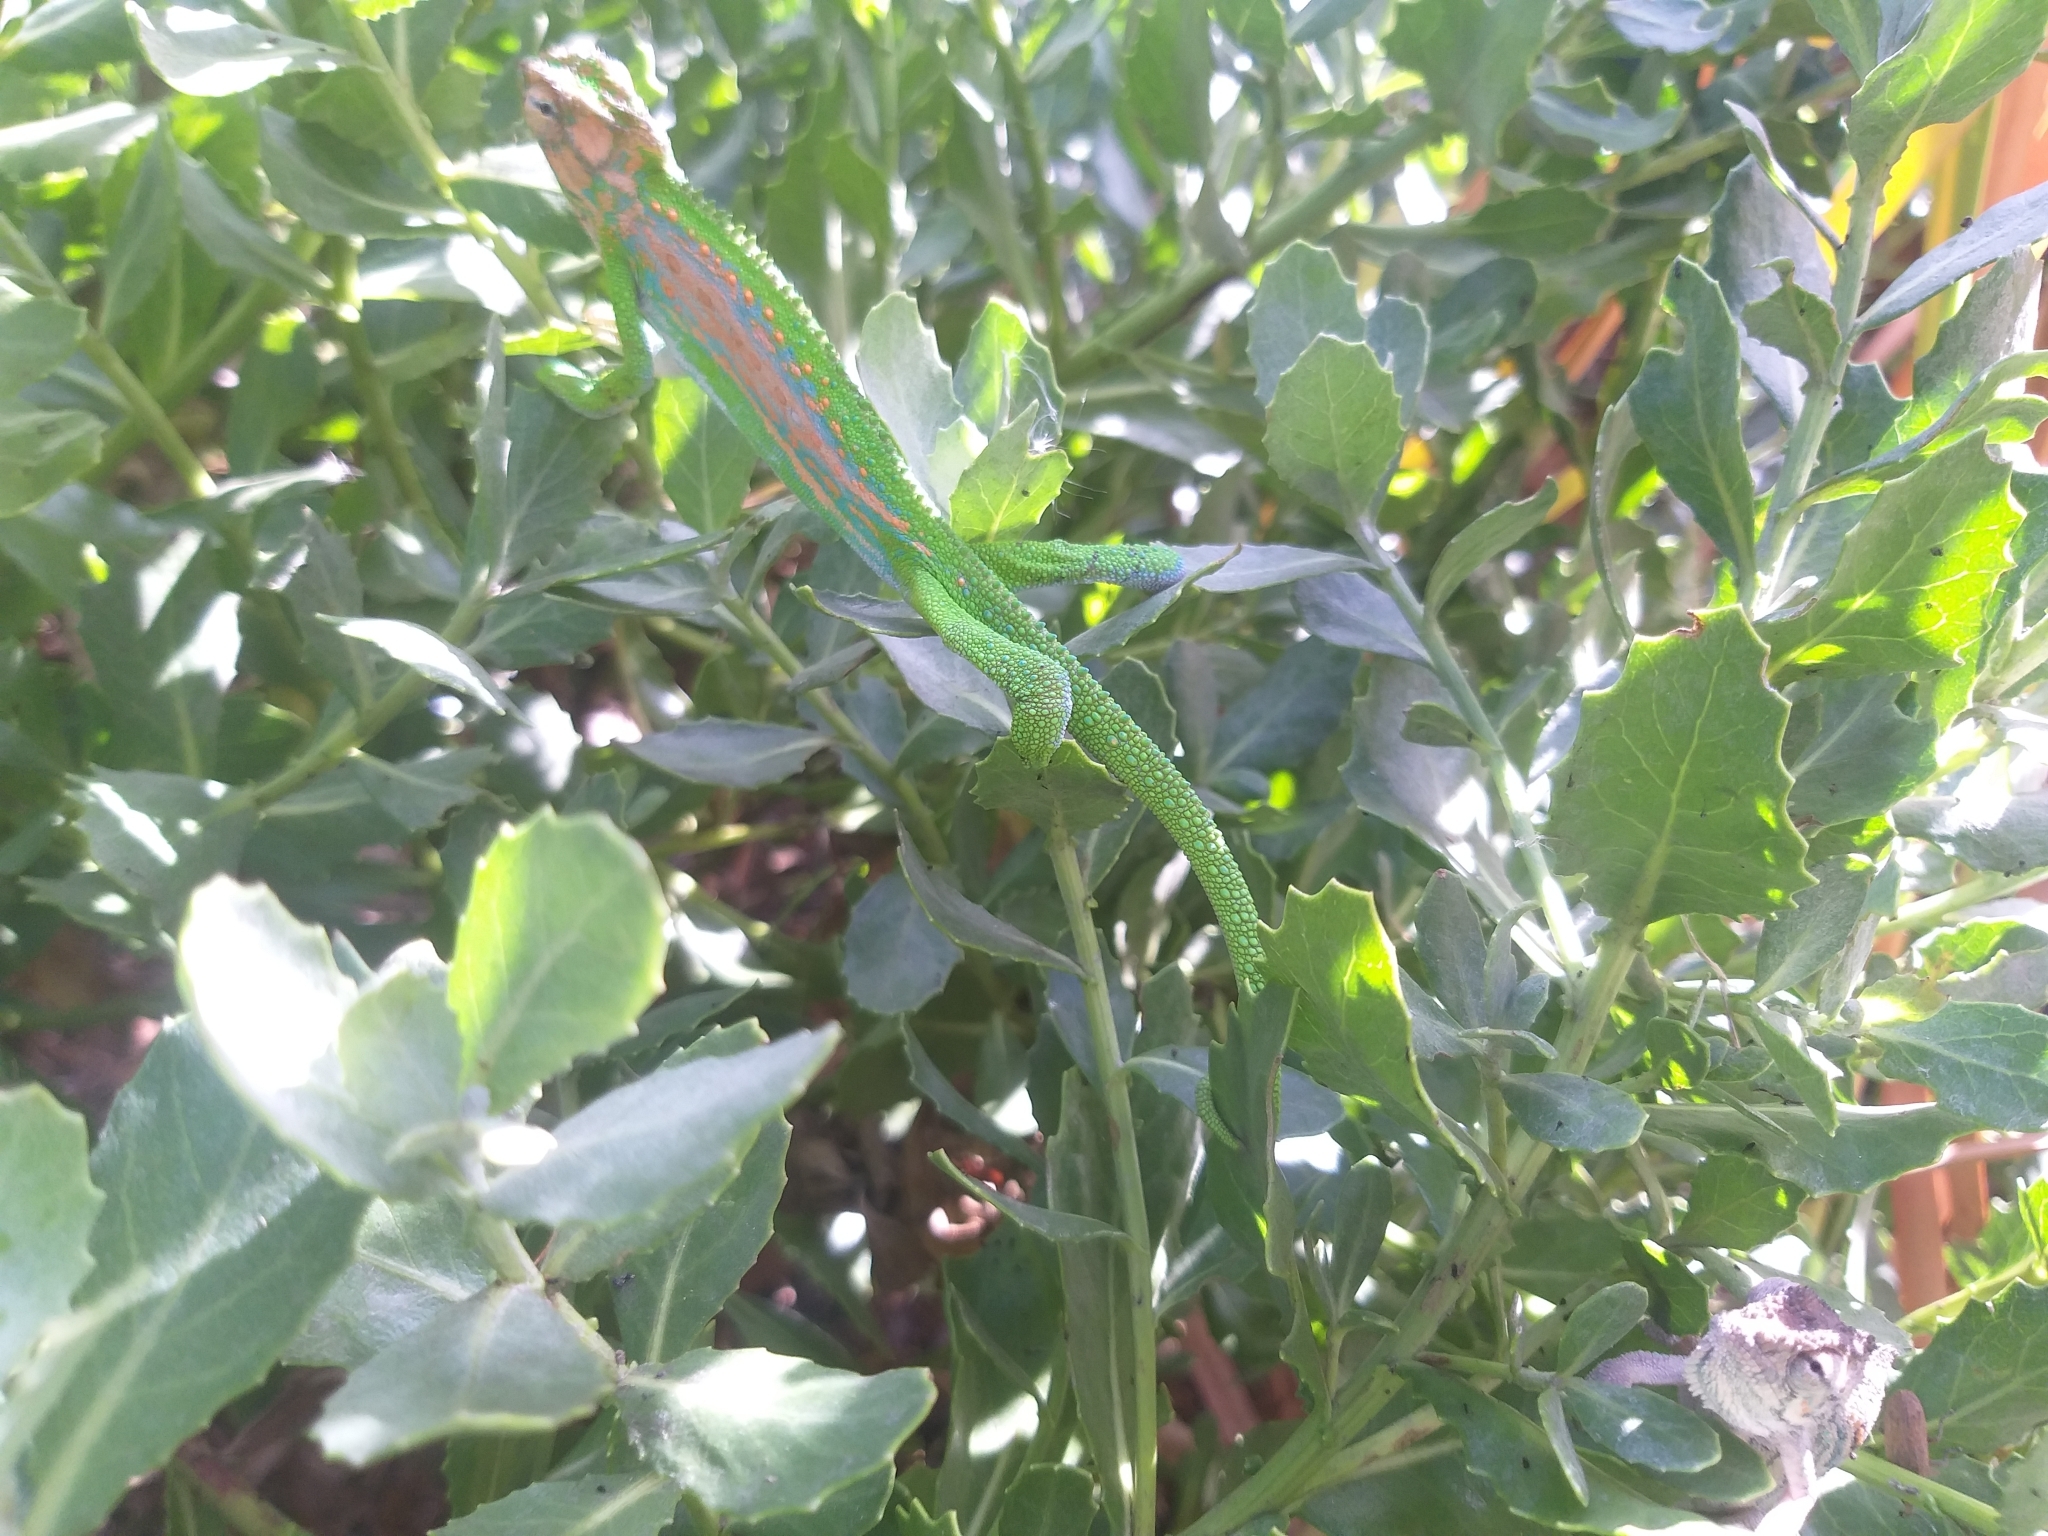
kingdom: Animalia
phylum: Chordata
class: Squamata
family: Chamaeleonidae
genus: Bradypodion
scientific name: Bradypodion pumilum
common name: Cape dwarf chameleon
